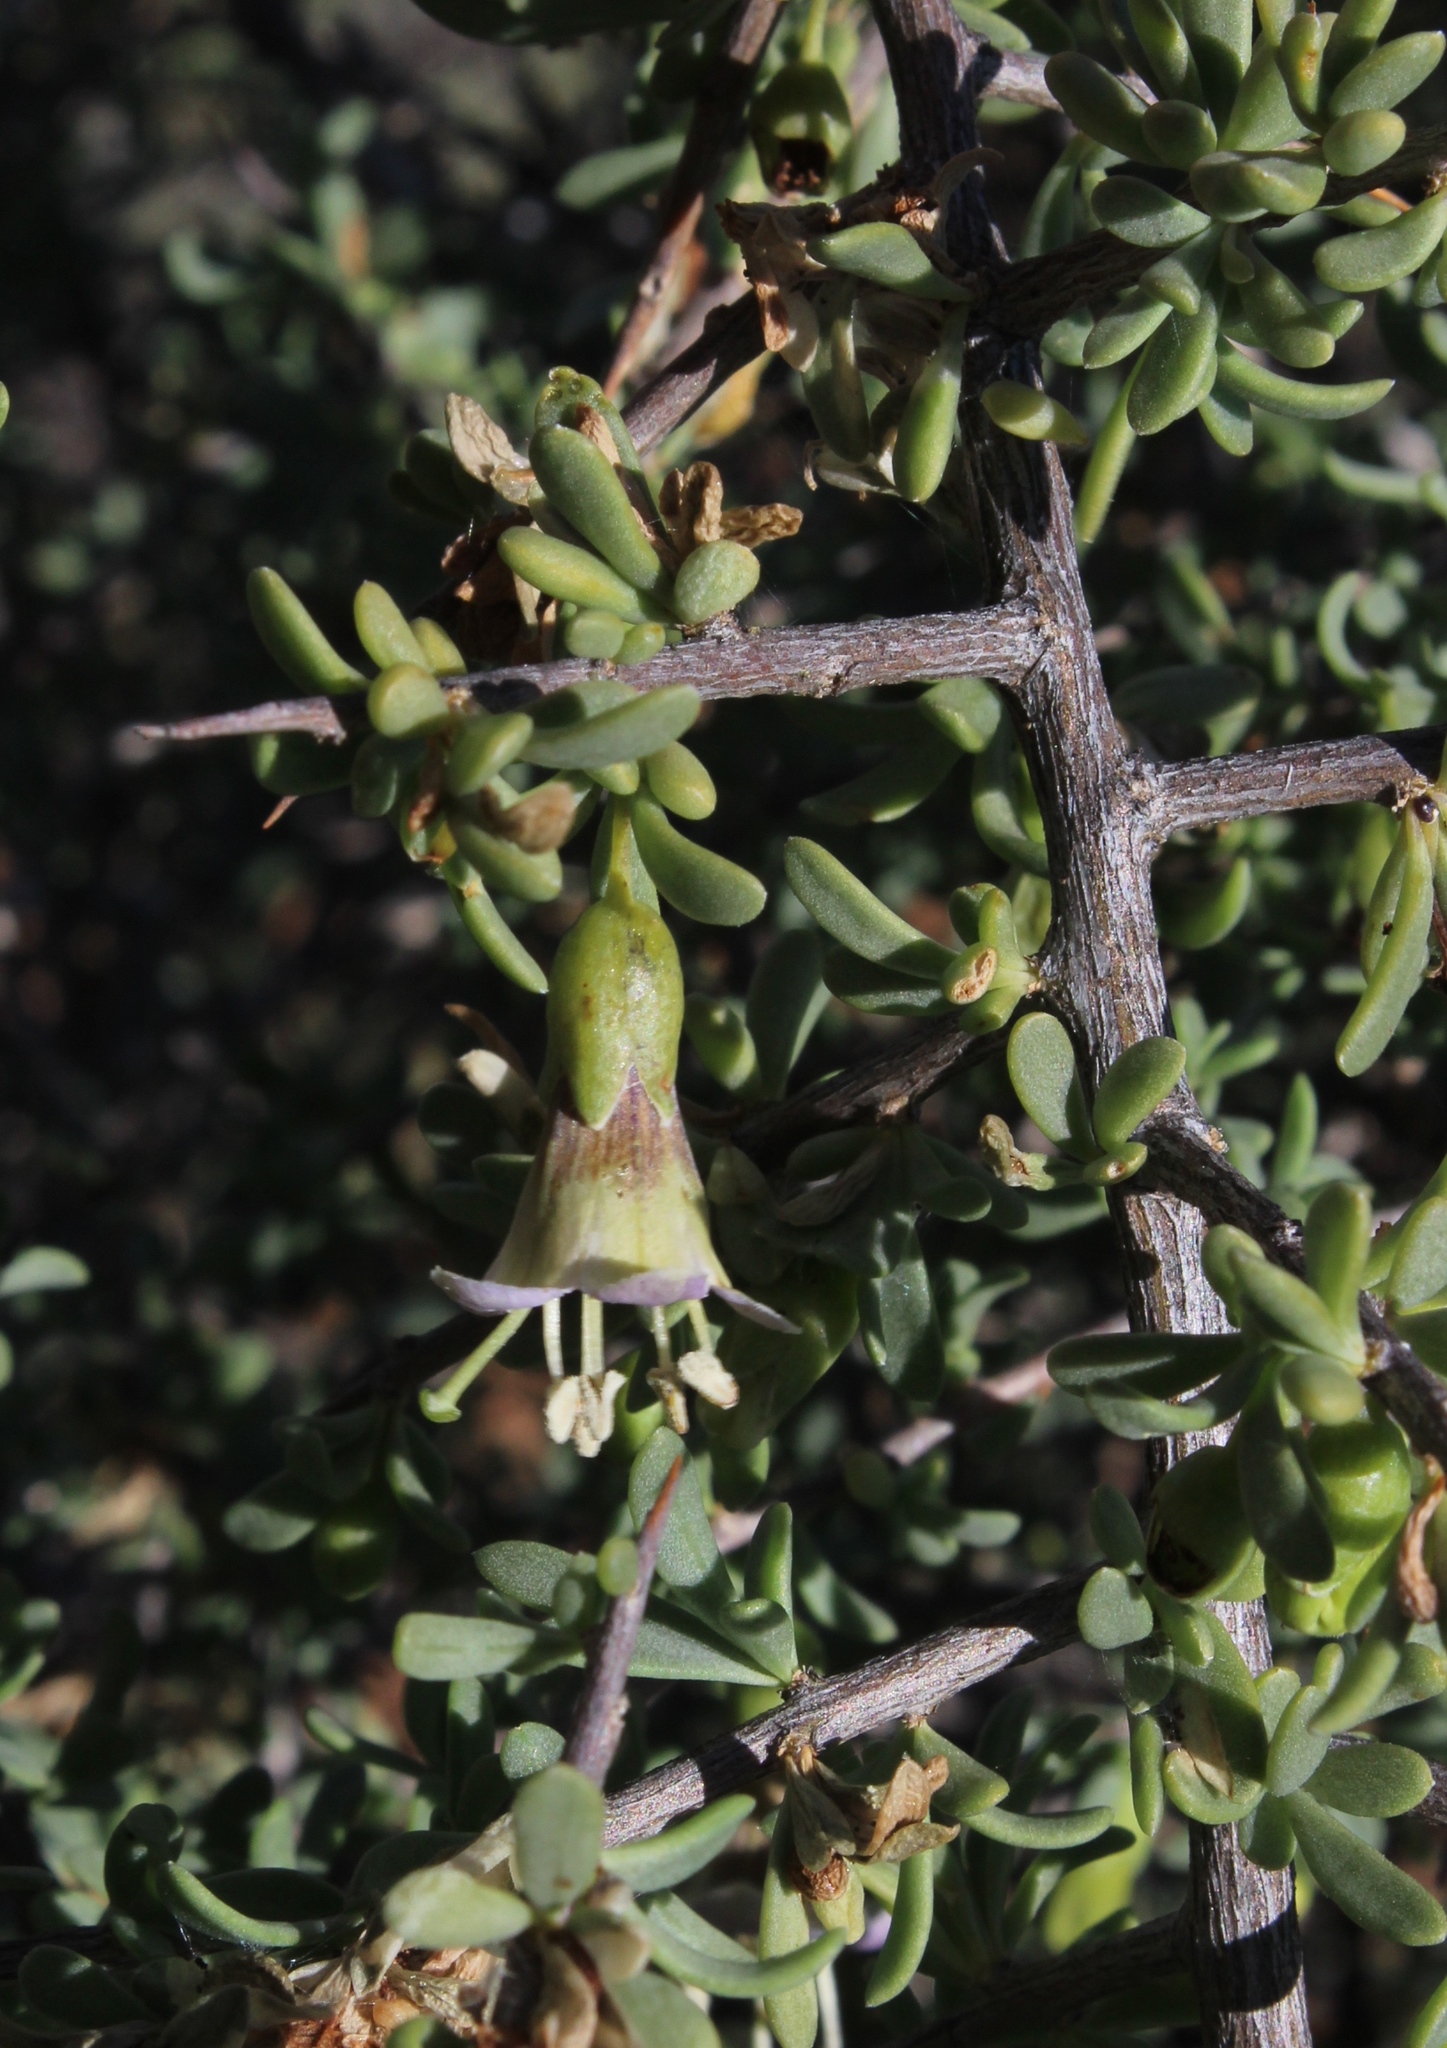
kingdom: Plantae
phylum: Tracheophyta
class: Magnoliopsida
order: Solanales
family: Solanaceae
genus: Lycium
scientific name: Lycium amoenum
